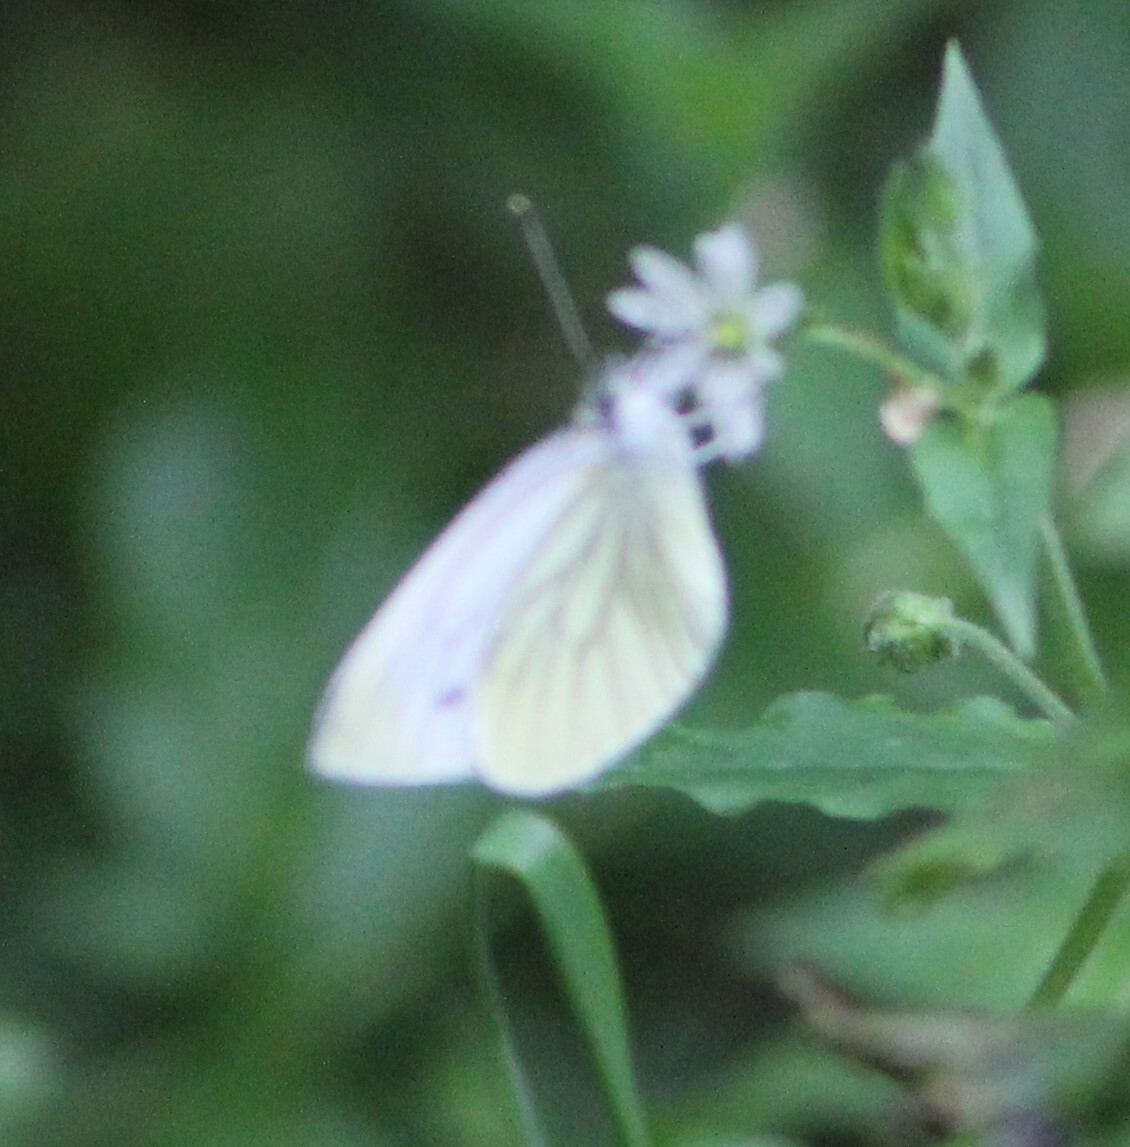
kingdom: Animalia
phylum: Arthropoda
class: Insecta
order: Lepidoptera
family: Pieridae
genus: Pieris
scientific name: Pieris napi
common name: Green-veined white
